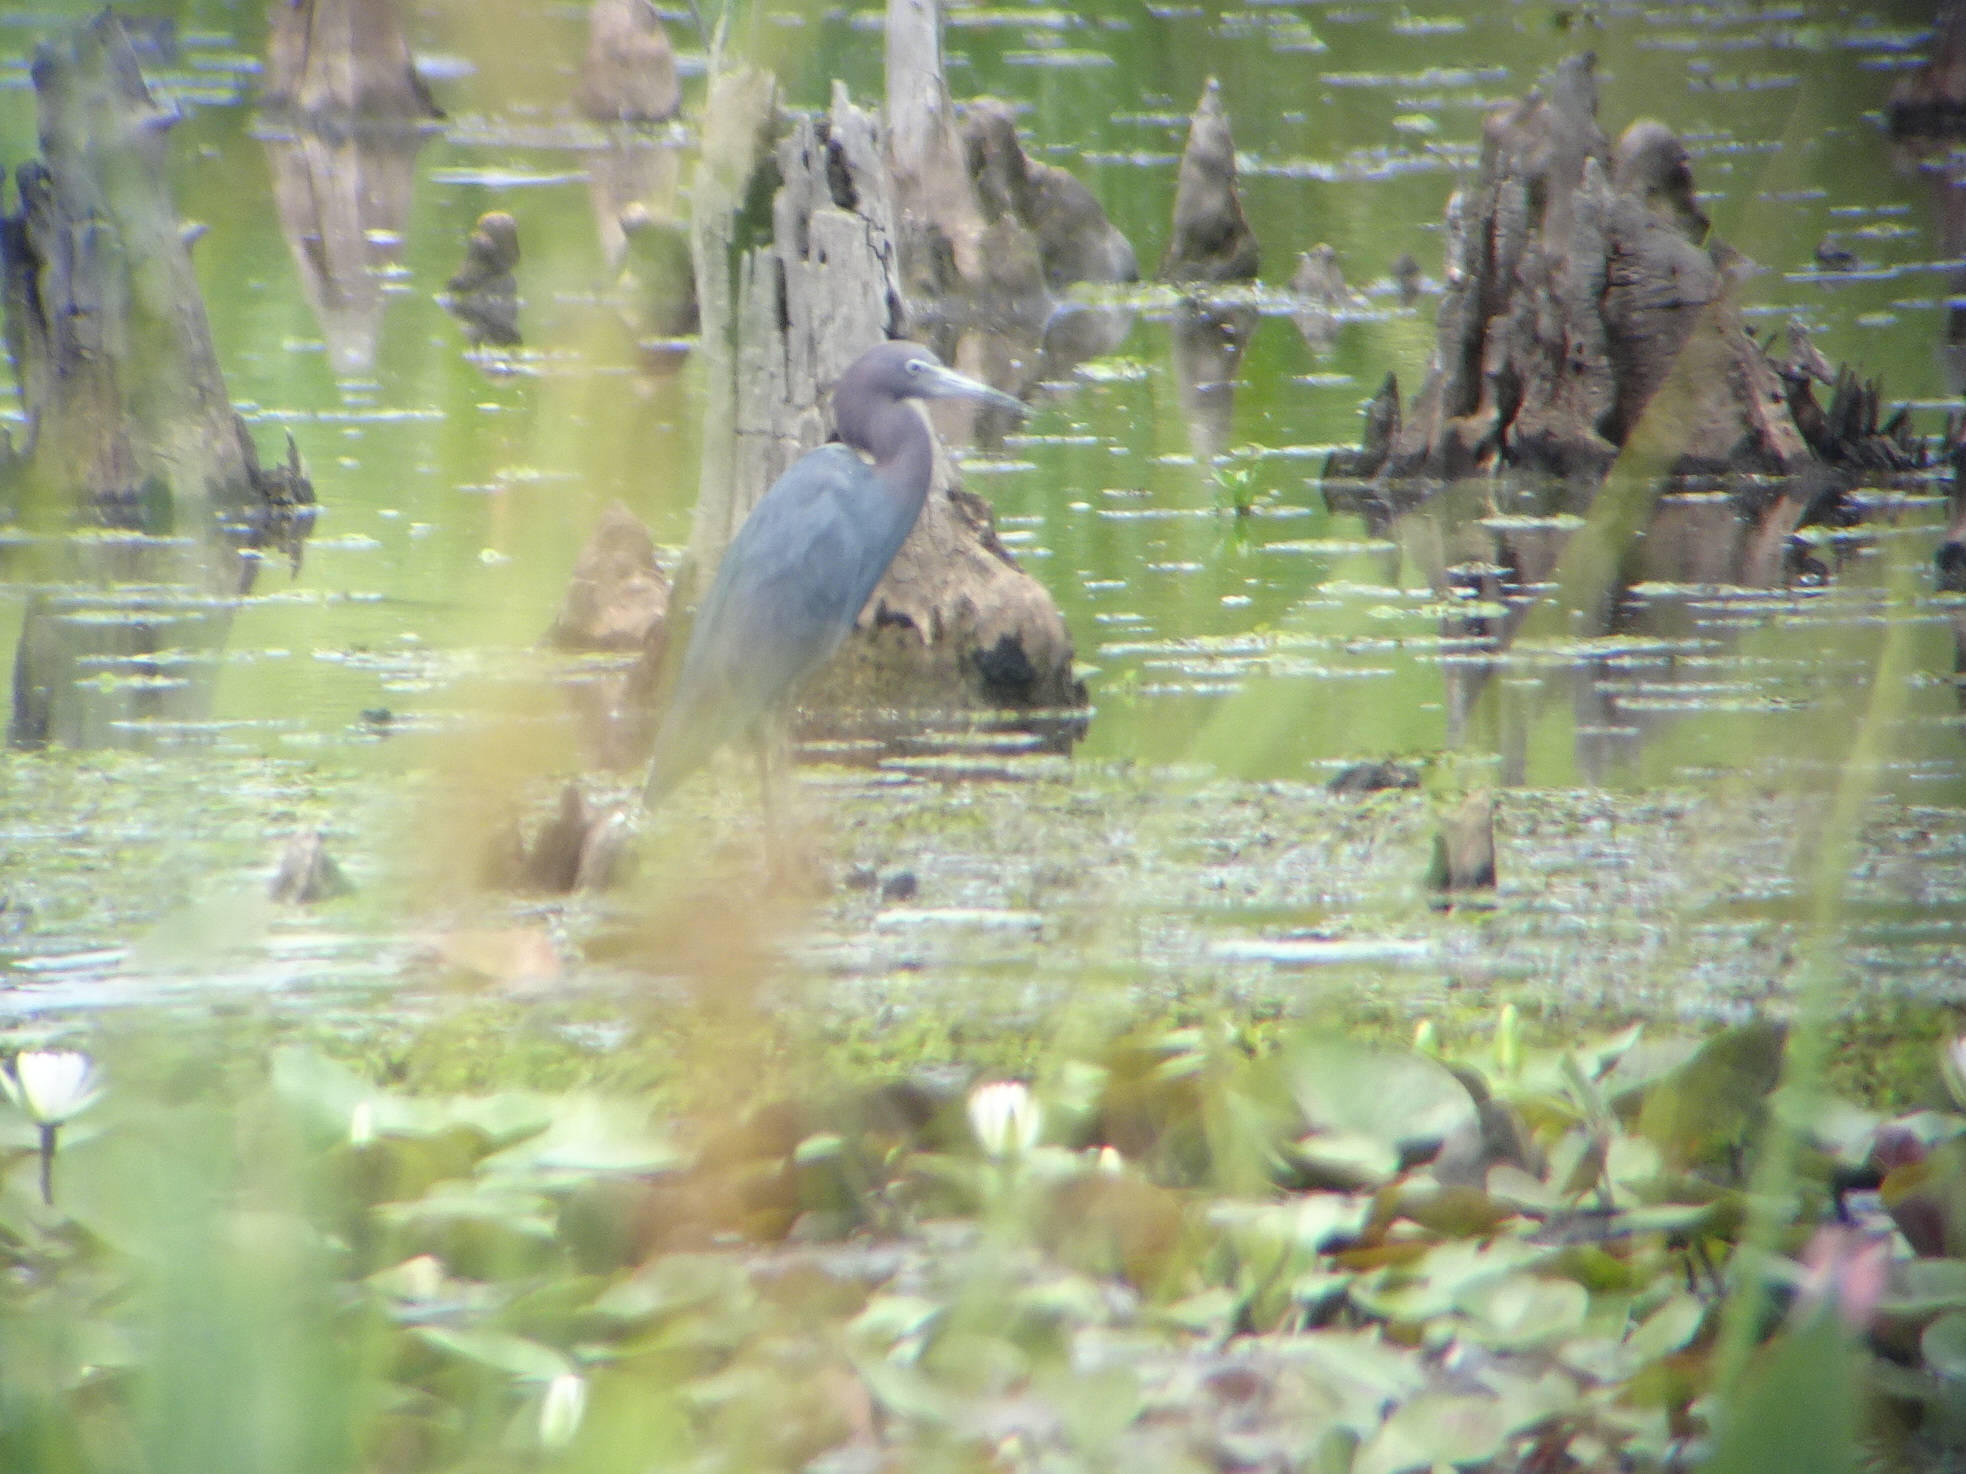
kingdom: Animalia
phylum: Chordata
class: Aves
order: Pelecaniformes
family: Ardeidae
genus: Egretta
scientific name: Egretta caerulea
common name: Little blue heron
